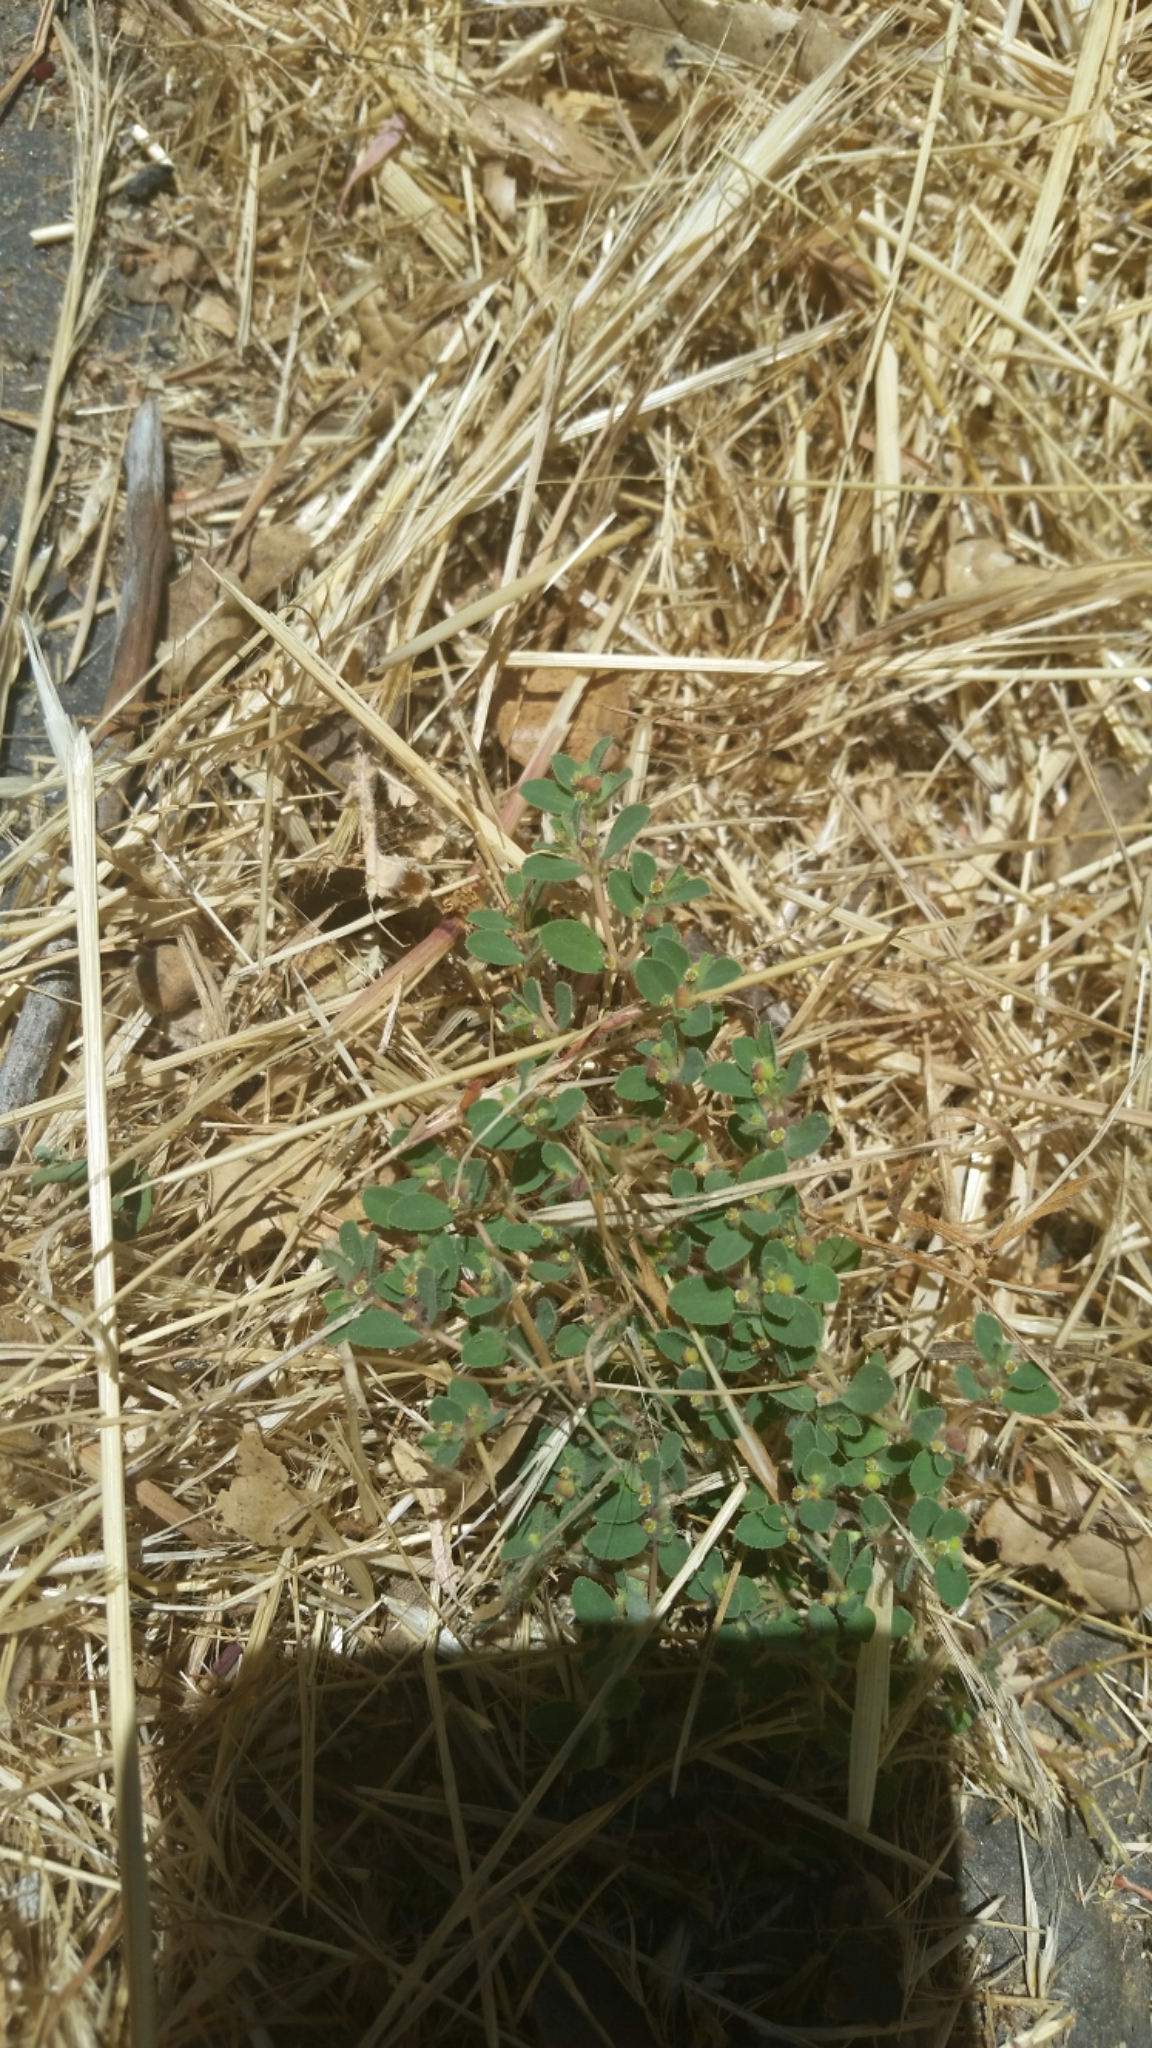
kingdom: Plantae
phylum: Tracheophyta
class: Magnoliopsida
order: Malpighiales
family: Euphorbiaceae
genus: Euphorbia
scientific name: Euphorbia serpillifolia
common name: Thyme-leaf spurge
